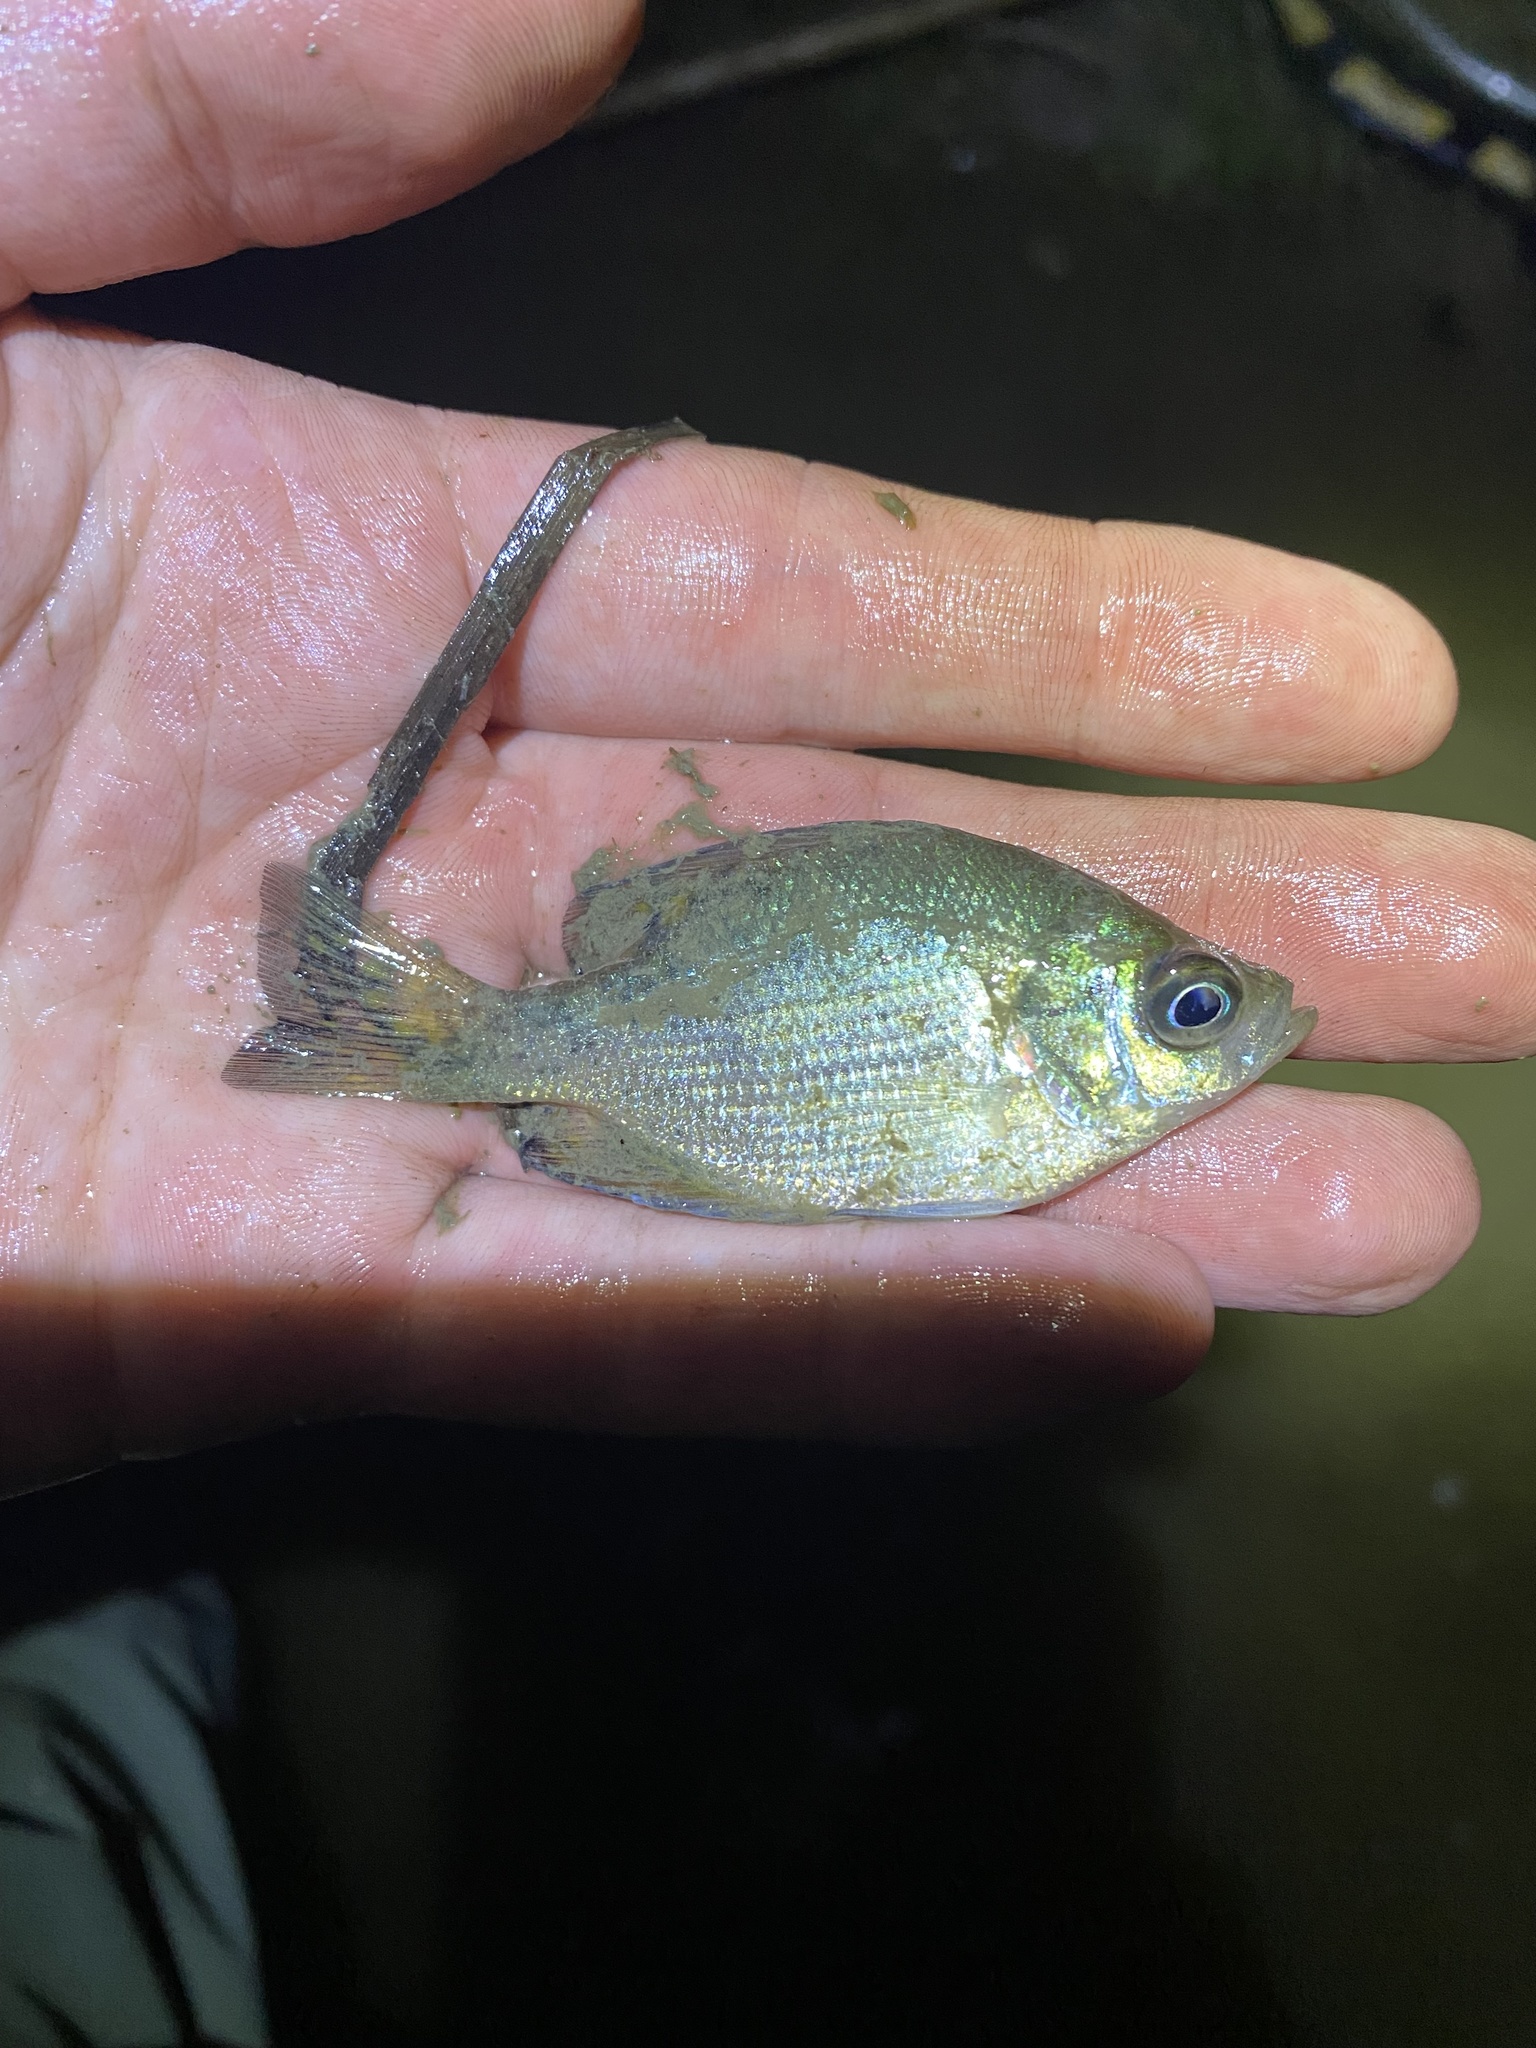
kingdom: Animalia
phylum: Chordata
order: Perciformes
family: Centrarchidae
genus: Centrarchus
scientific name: Centrarchus macropterus
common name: Flier
